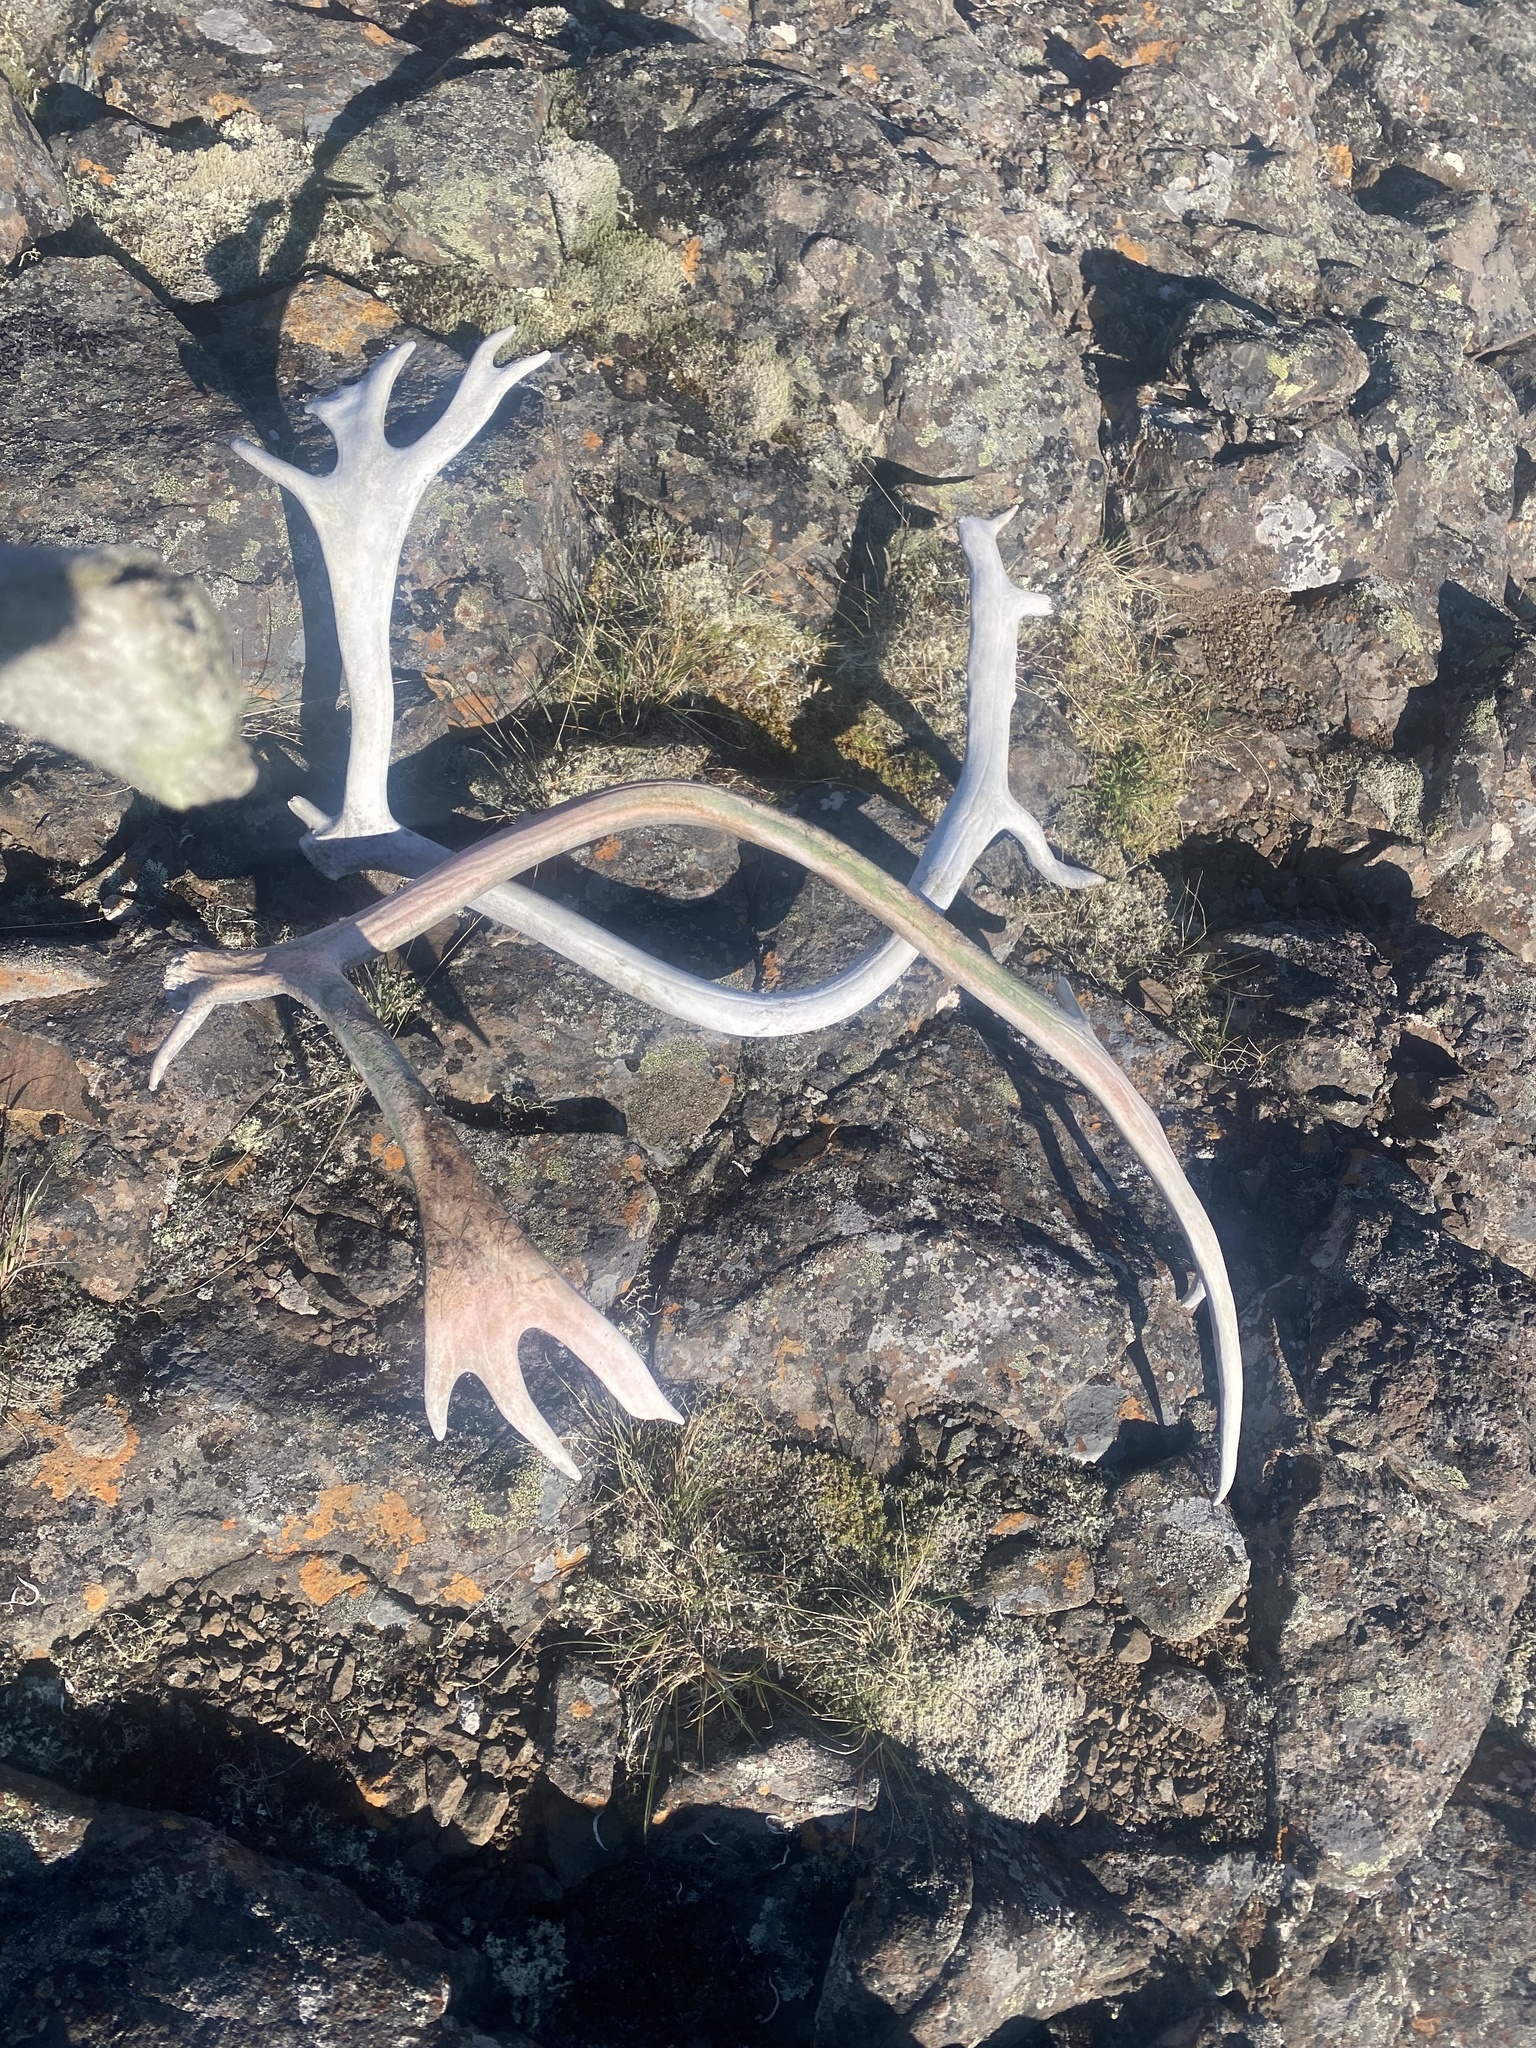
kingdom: Animalia
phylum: Chordata
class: Mammalia
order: Artiodactyla
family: Cervidae
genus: Rangifer
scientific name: Rangifer tarandus
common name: Reindeer
